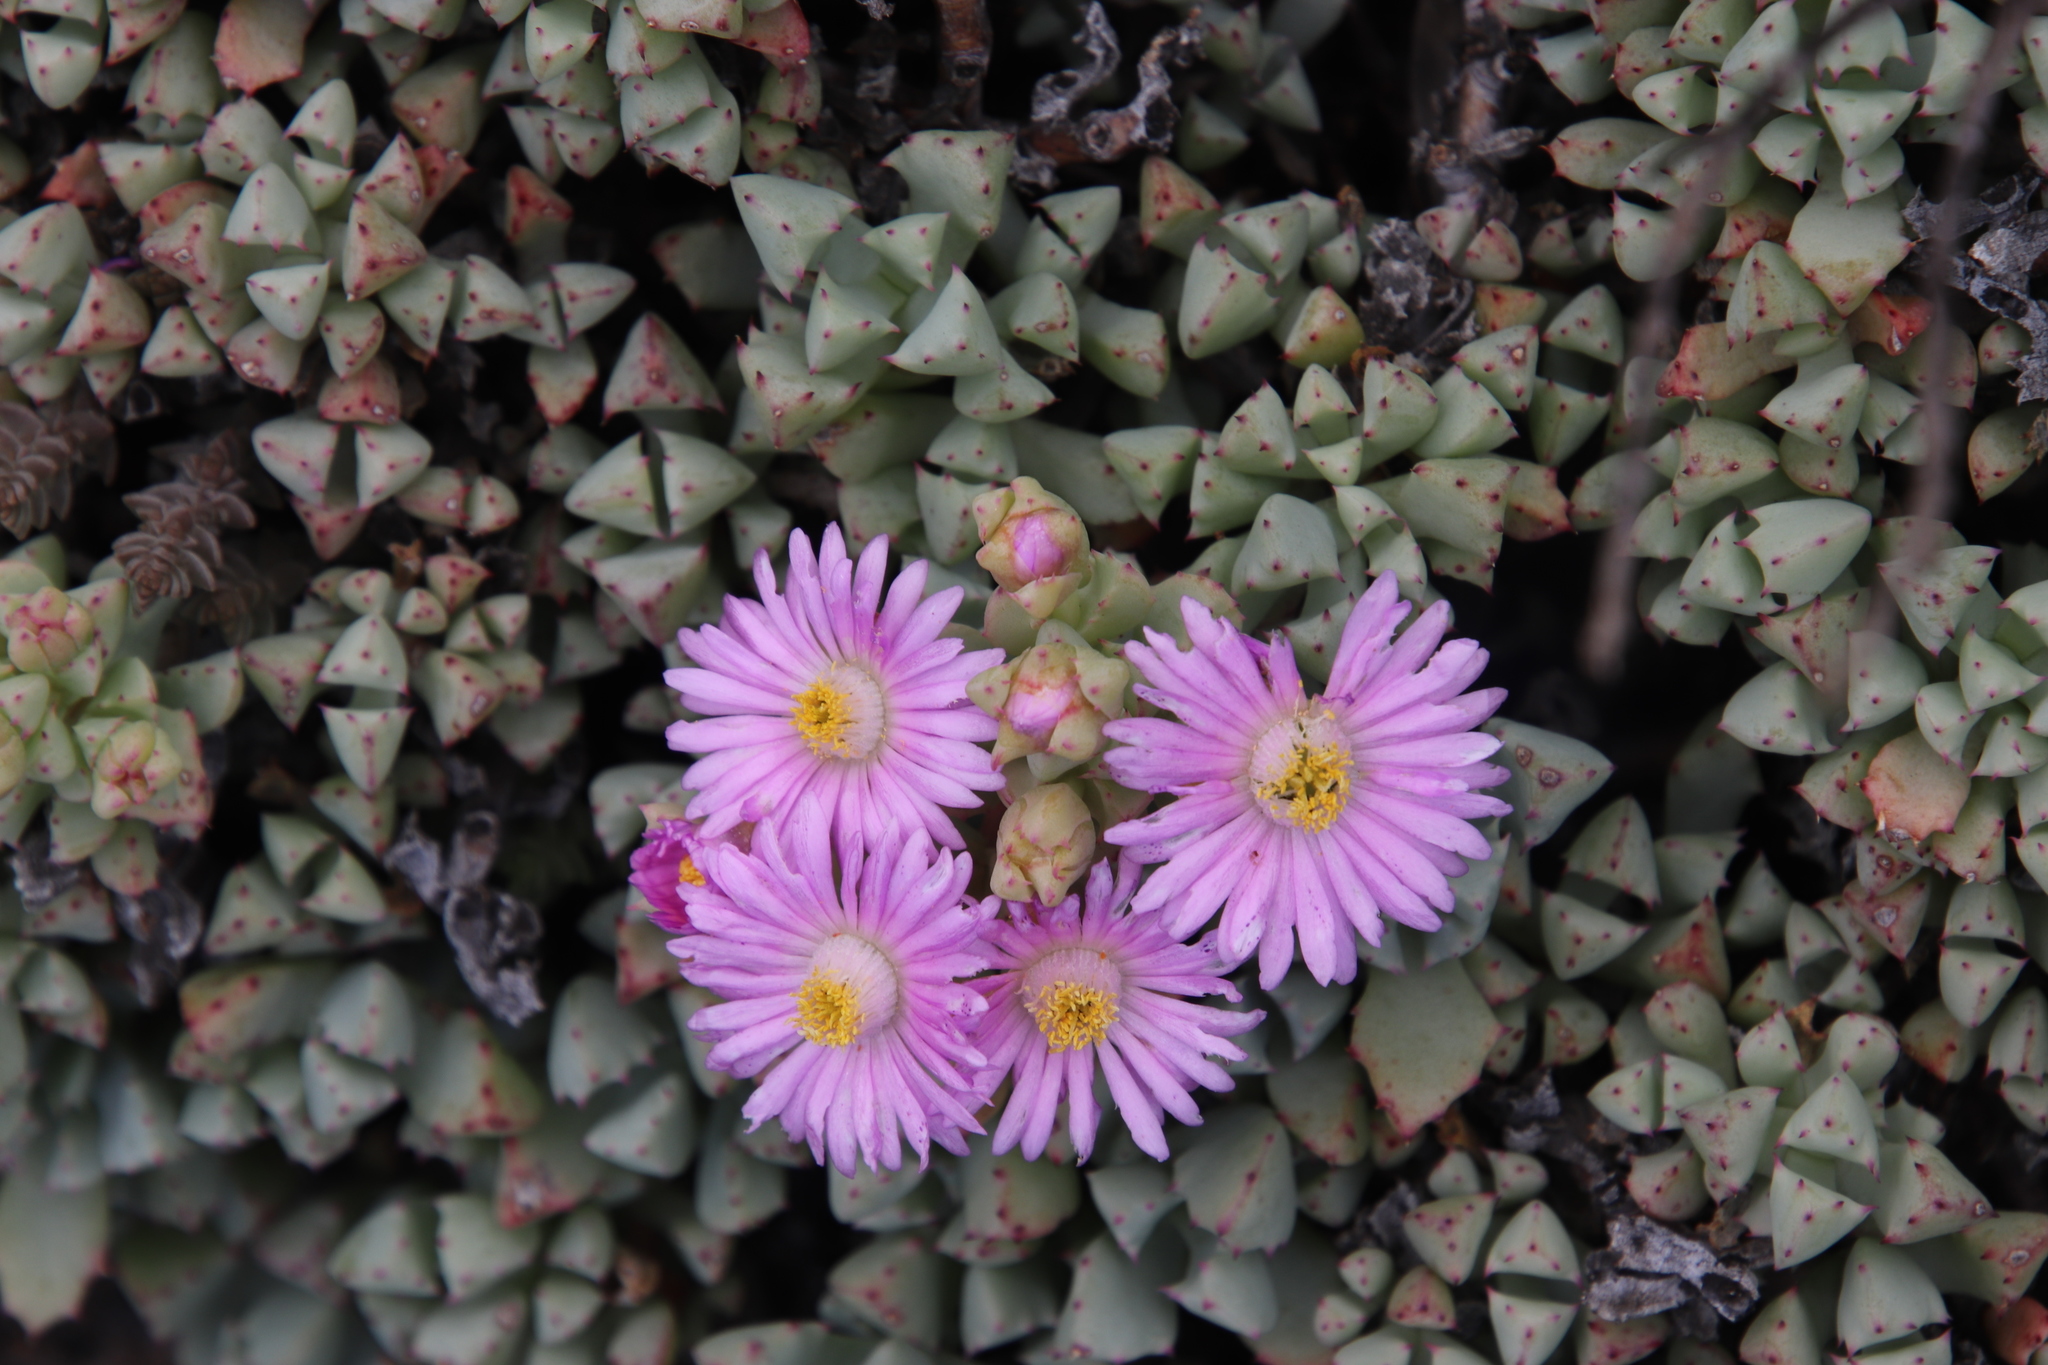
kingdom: Plantae
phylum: Tracheophyta
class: Magnoliopsida
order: Caryophyllales
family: Aizoaceae
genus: Oscularia
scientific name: Oscularia deltoides
